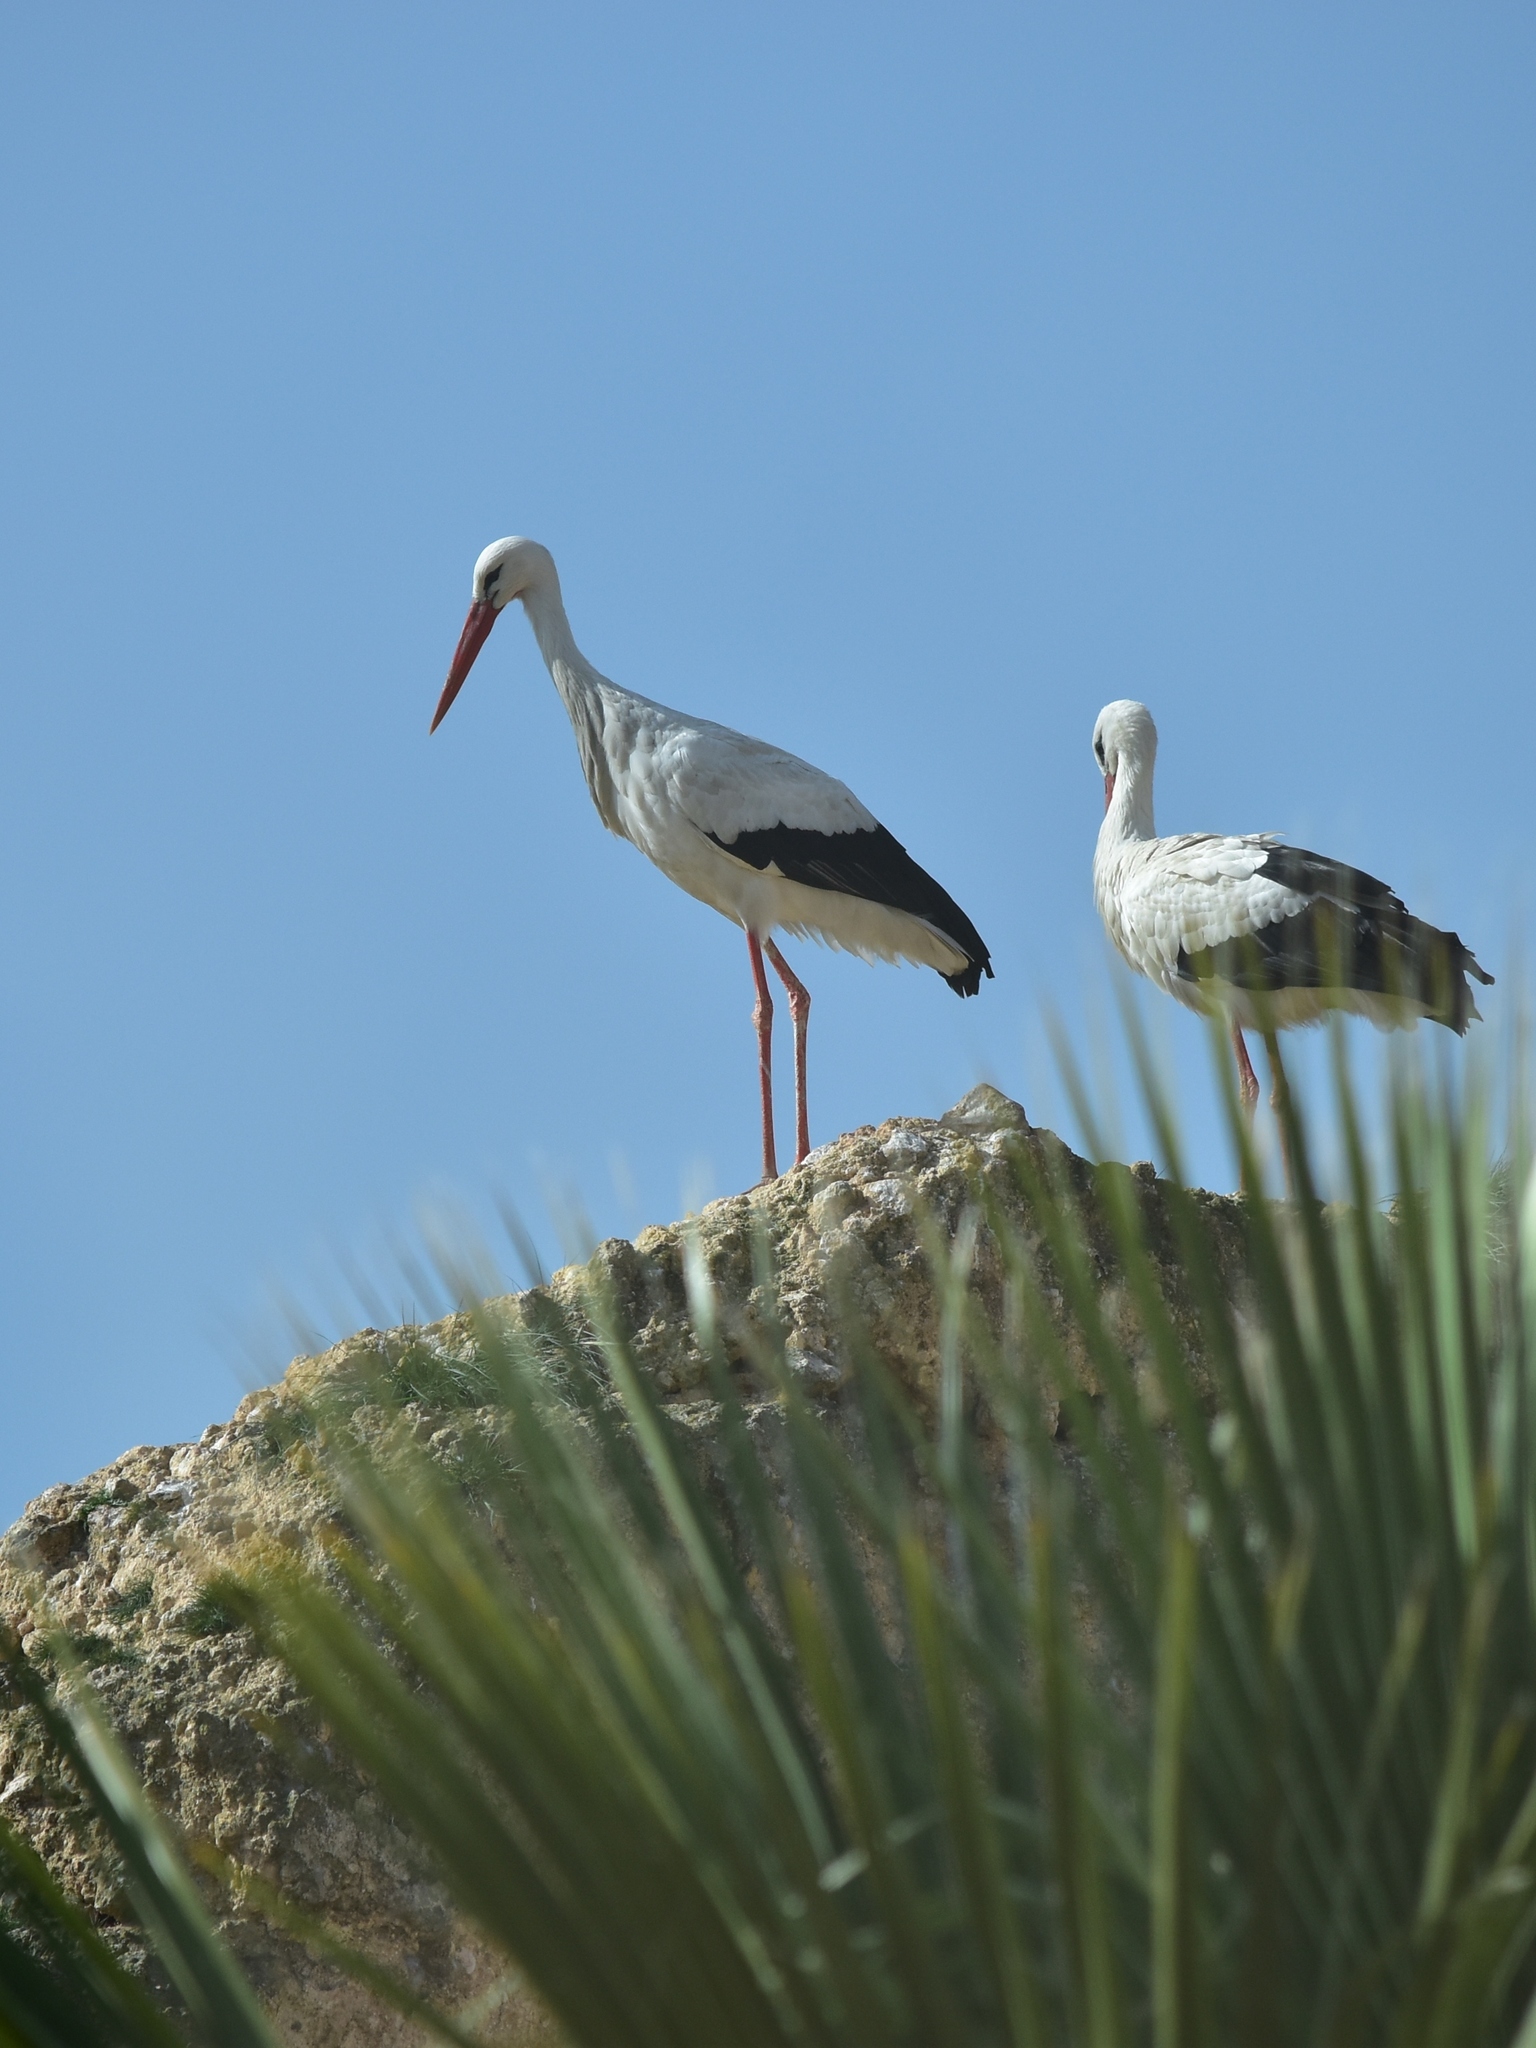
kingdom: Animalia
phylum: Chordata
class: Aves
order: Ciconiiformes
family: Ciconiidae
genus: Ciconia
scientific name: Ciconia ciconia
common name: White stork
